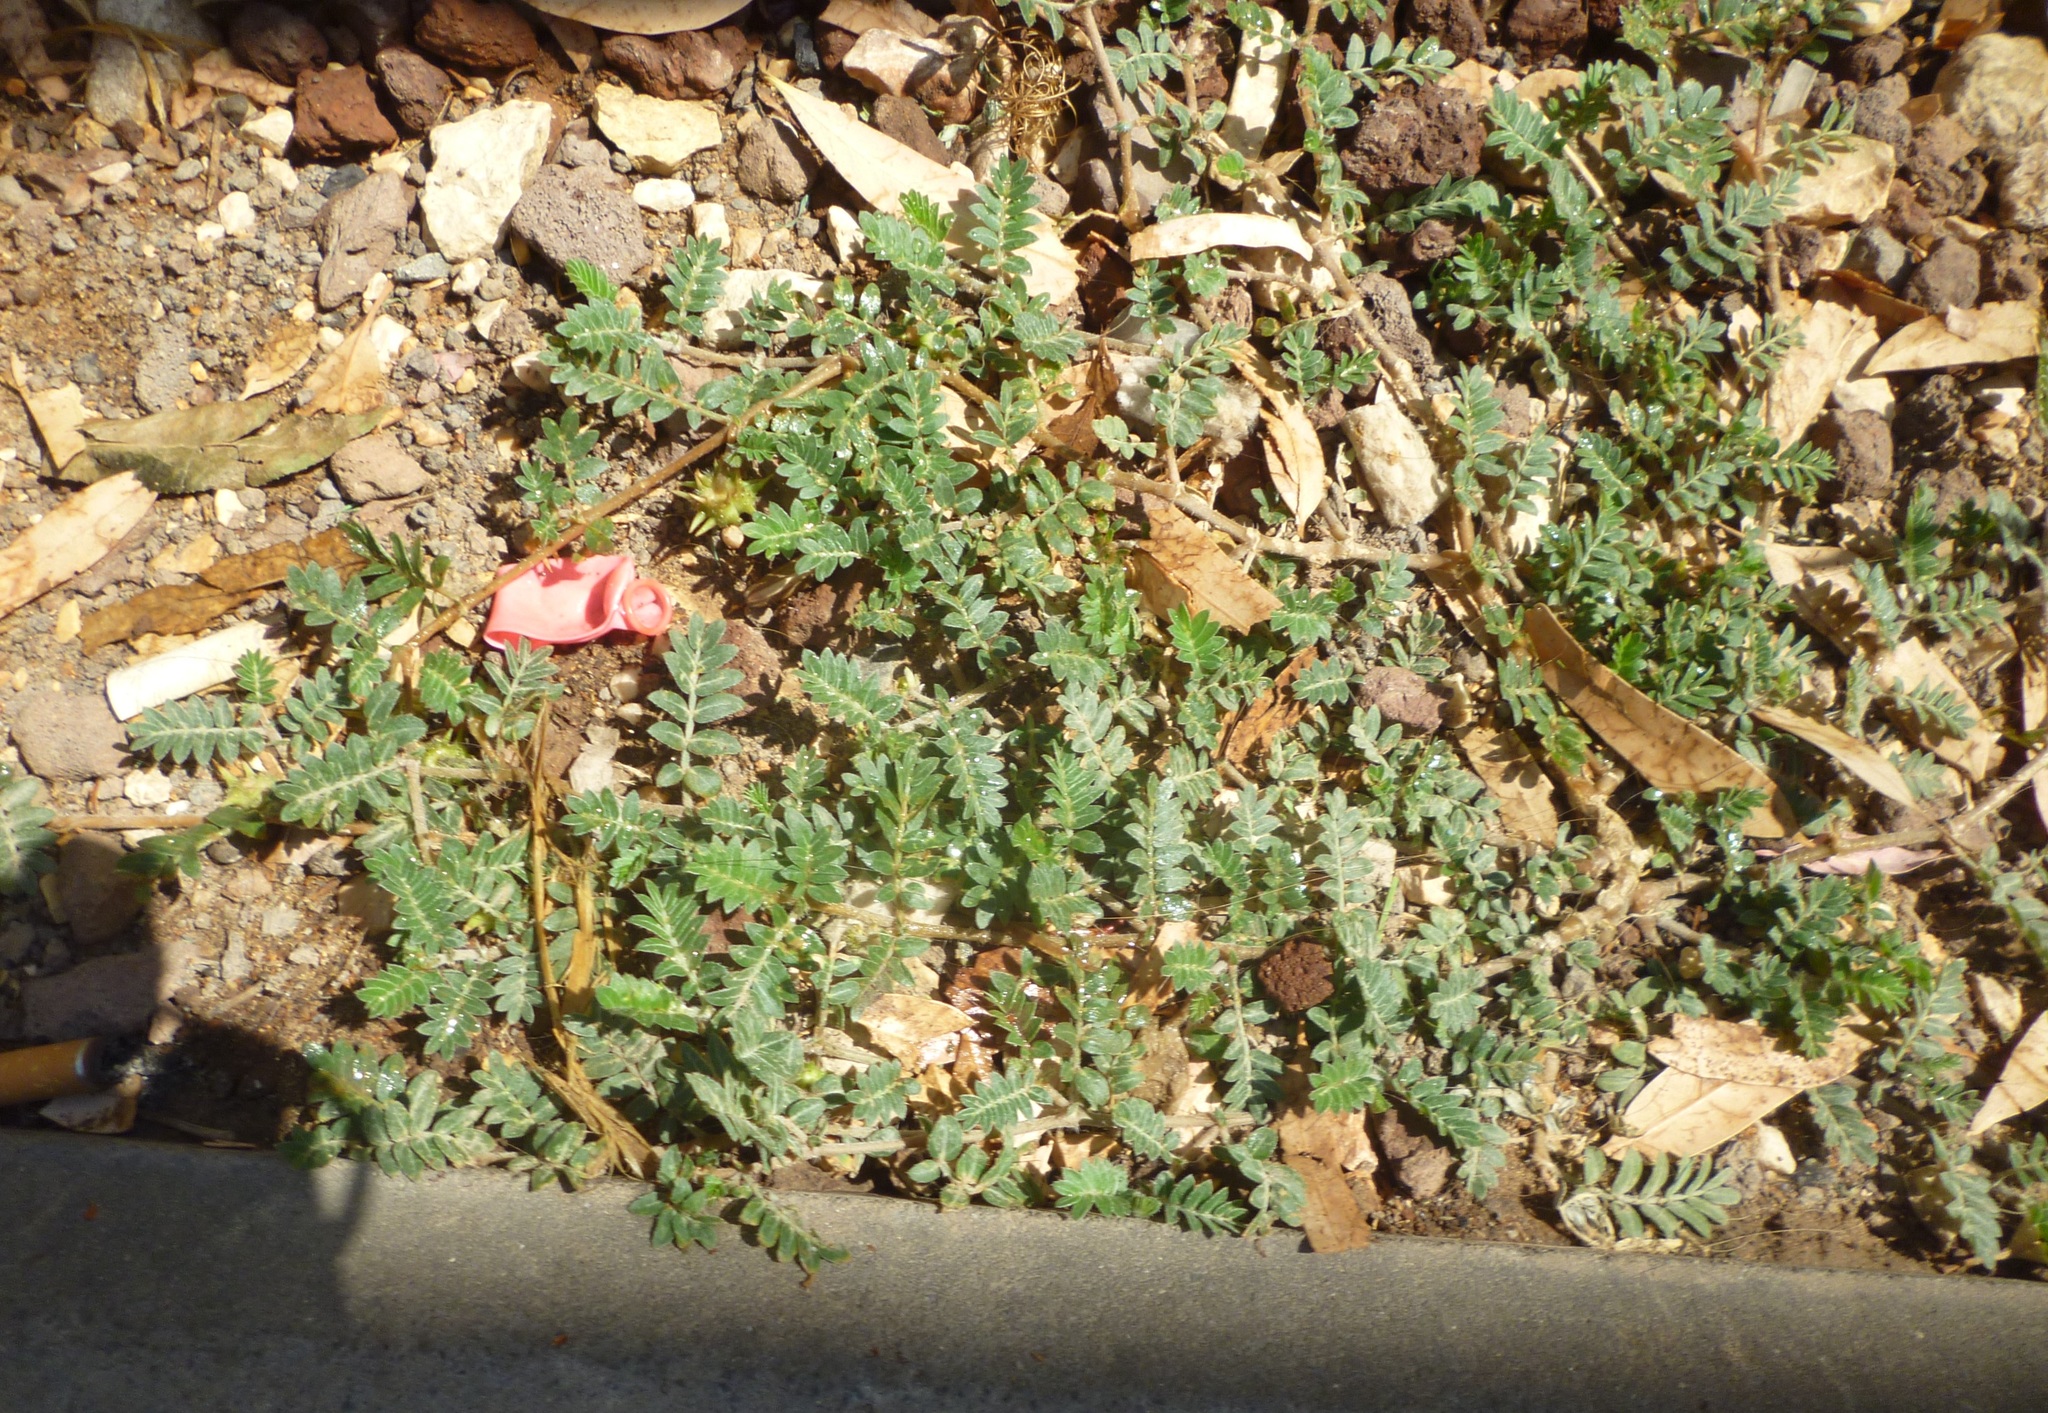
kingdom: Plantae
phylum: Tracheophyta
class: Magnoliopsida
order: Zygophyllales
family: Zygophyllaceae
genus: Tribulus
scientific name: Tribulus terrestris
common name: Puncturevine
